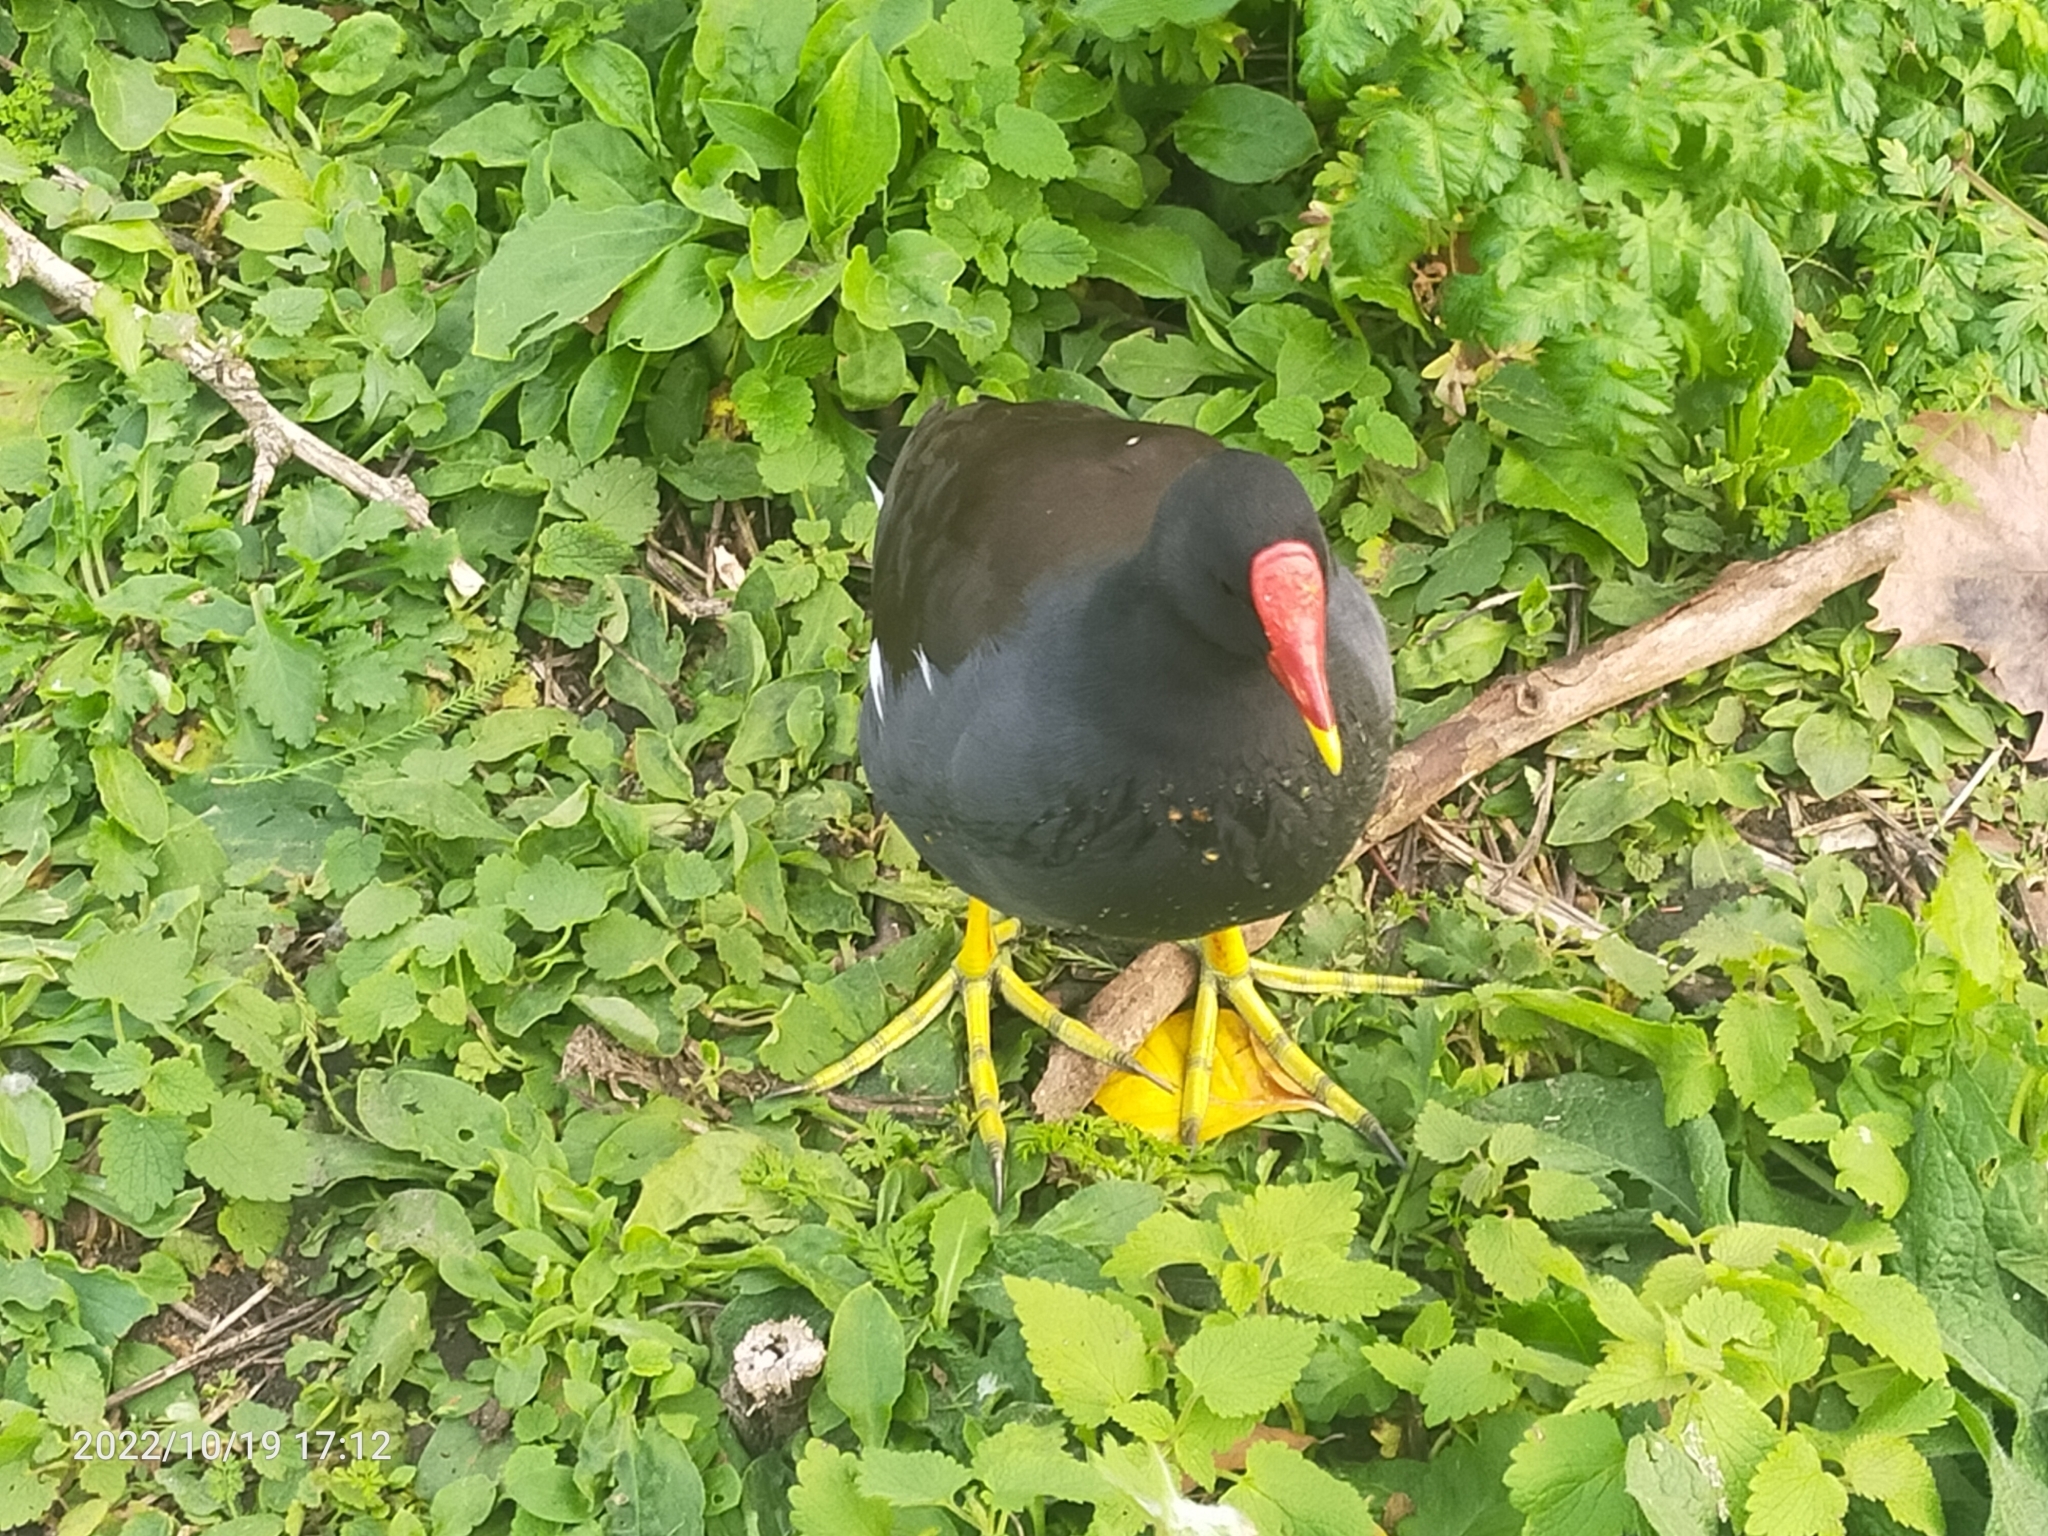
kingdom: Animalia
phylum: Chordata
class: Aves
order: Gruiformes
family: Rallidae
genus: Gallinula
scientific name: Gallinula chloropus
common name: Common moorhen
